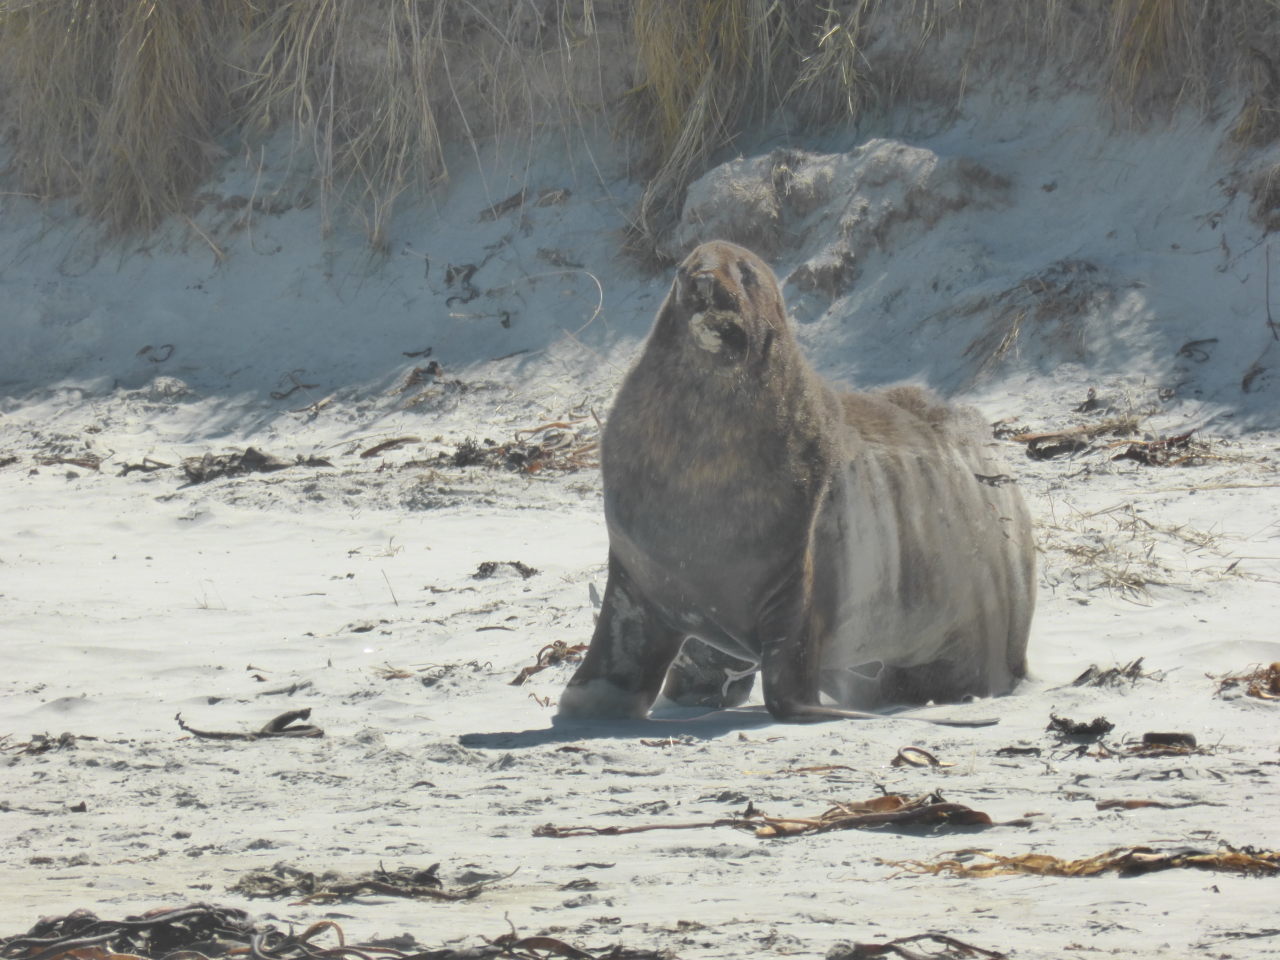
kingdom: Animalia
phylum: Chordata
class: Mammalia
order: Carnivora
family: Otariidae
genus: Phocarctos
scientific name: Phocarctos hookeri
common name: New zealand sea lion
